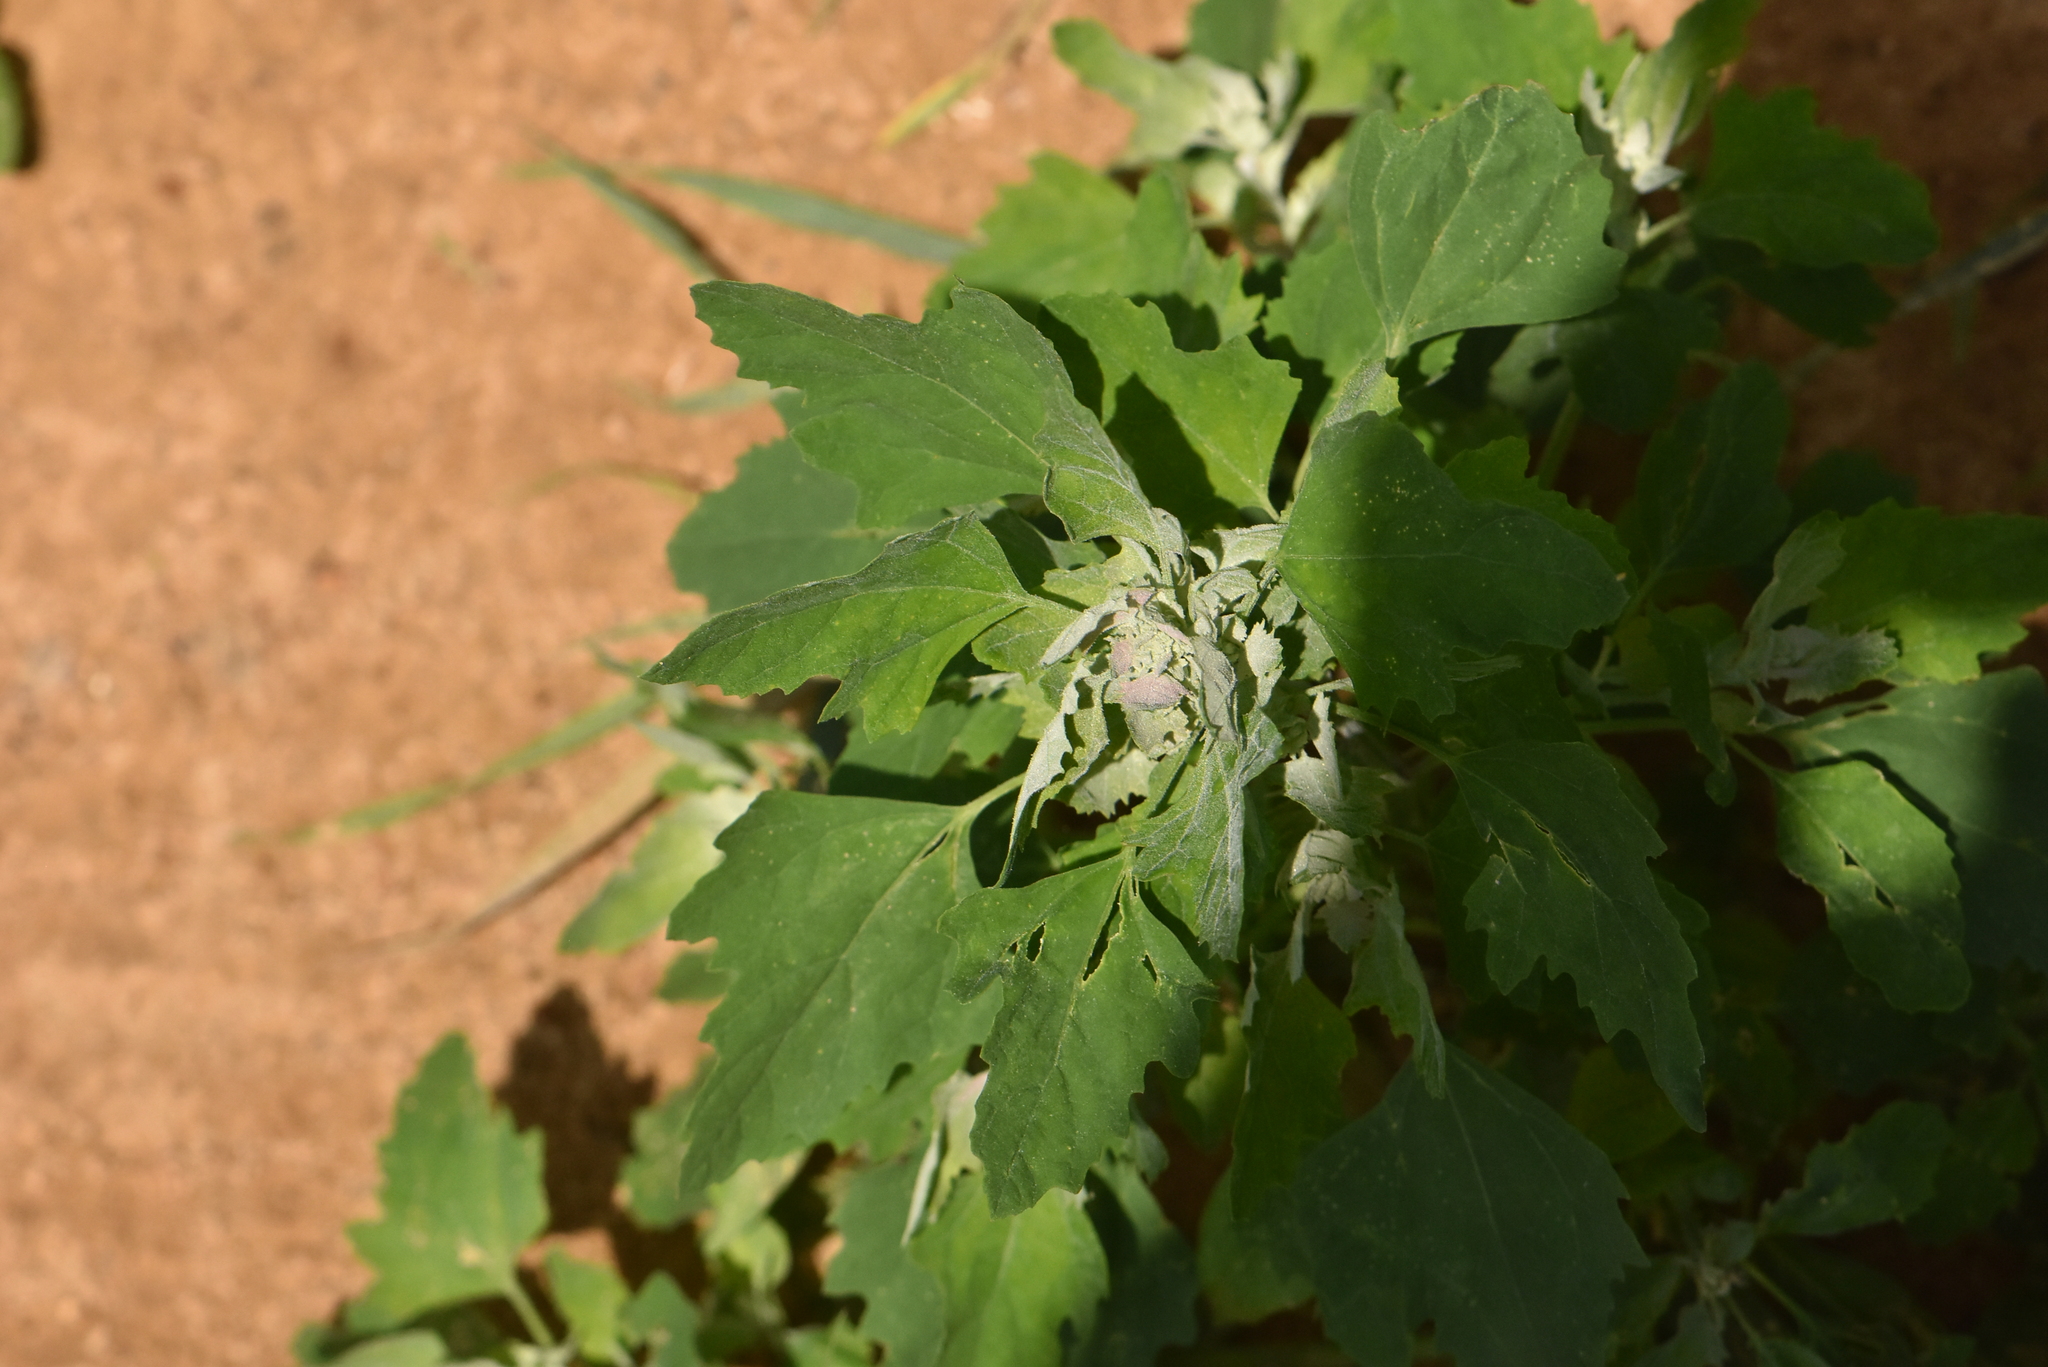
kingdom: Plantae
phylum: Tracheophyta
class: Magnoliopsida
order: Caryophyllales
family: Amaranthaceae
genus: Chenopodium
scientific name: Chenopodium album
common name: Fat-hen
